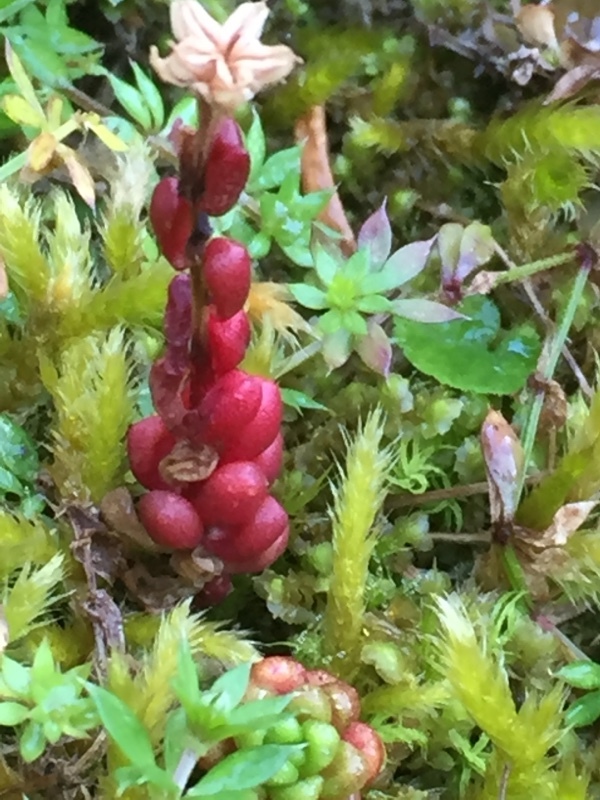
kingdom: Plantae
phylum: Tracheophyta
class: Magnoliopsida
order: Saxifragales
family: Crassulaceae
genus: Sedum
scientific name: Sedum atratum
